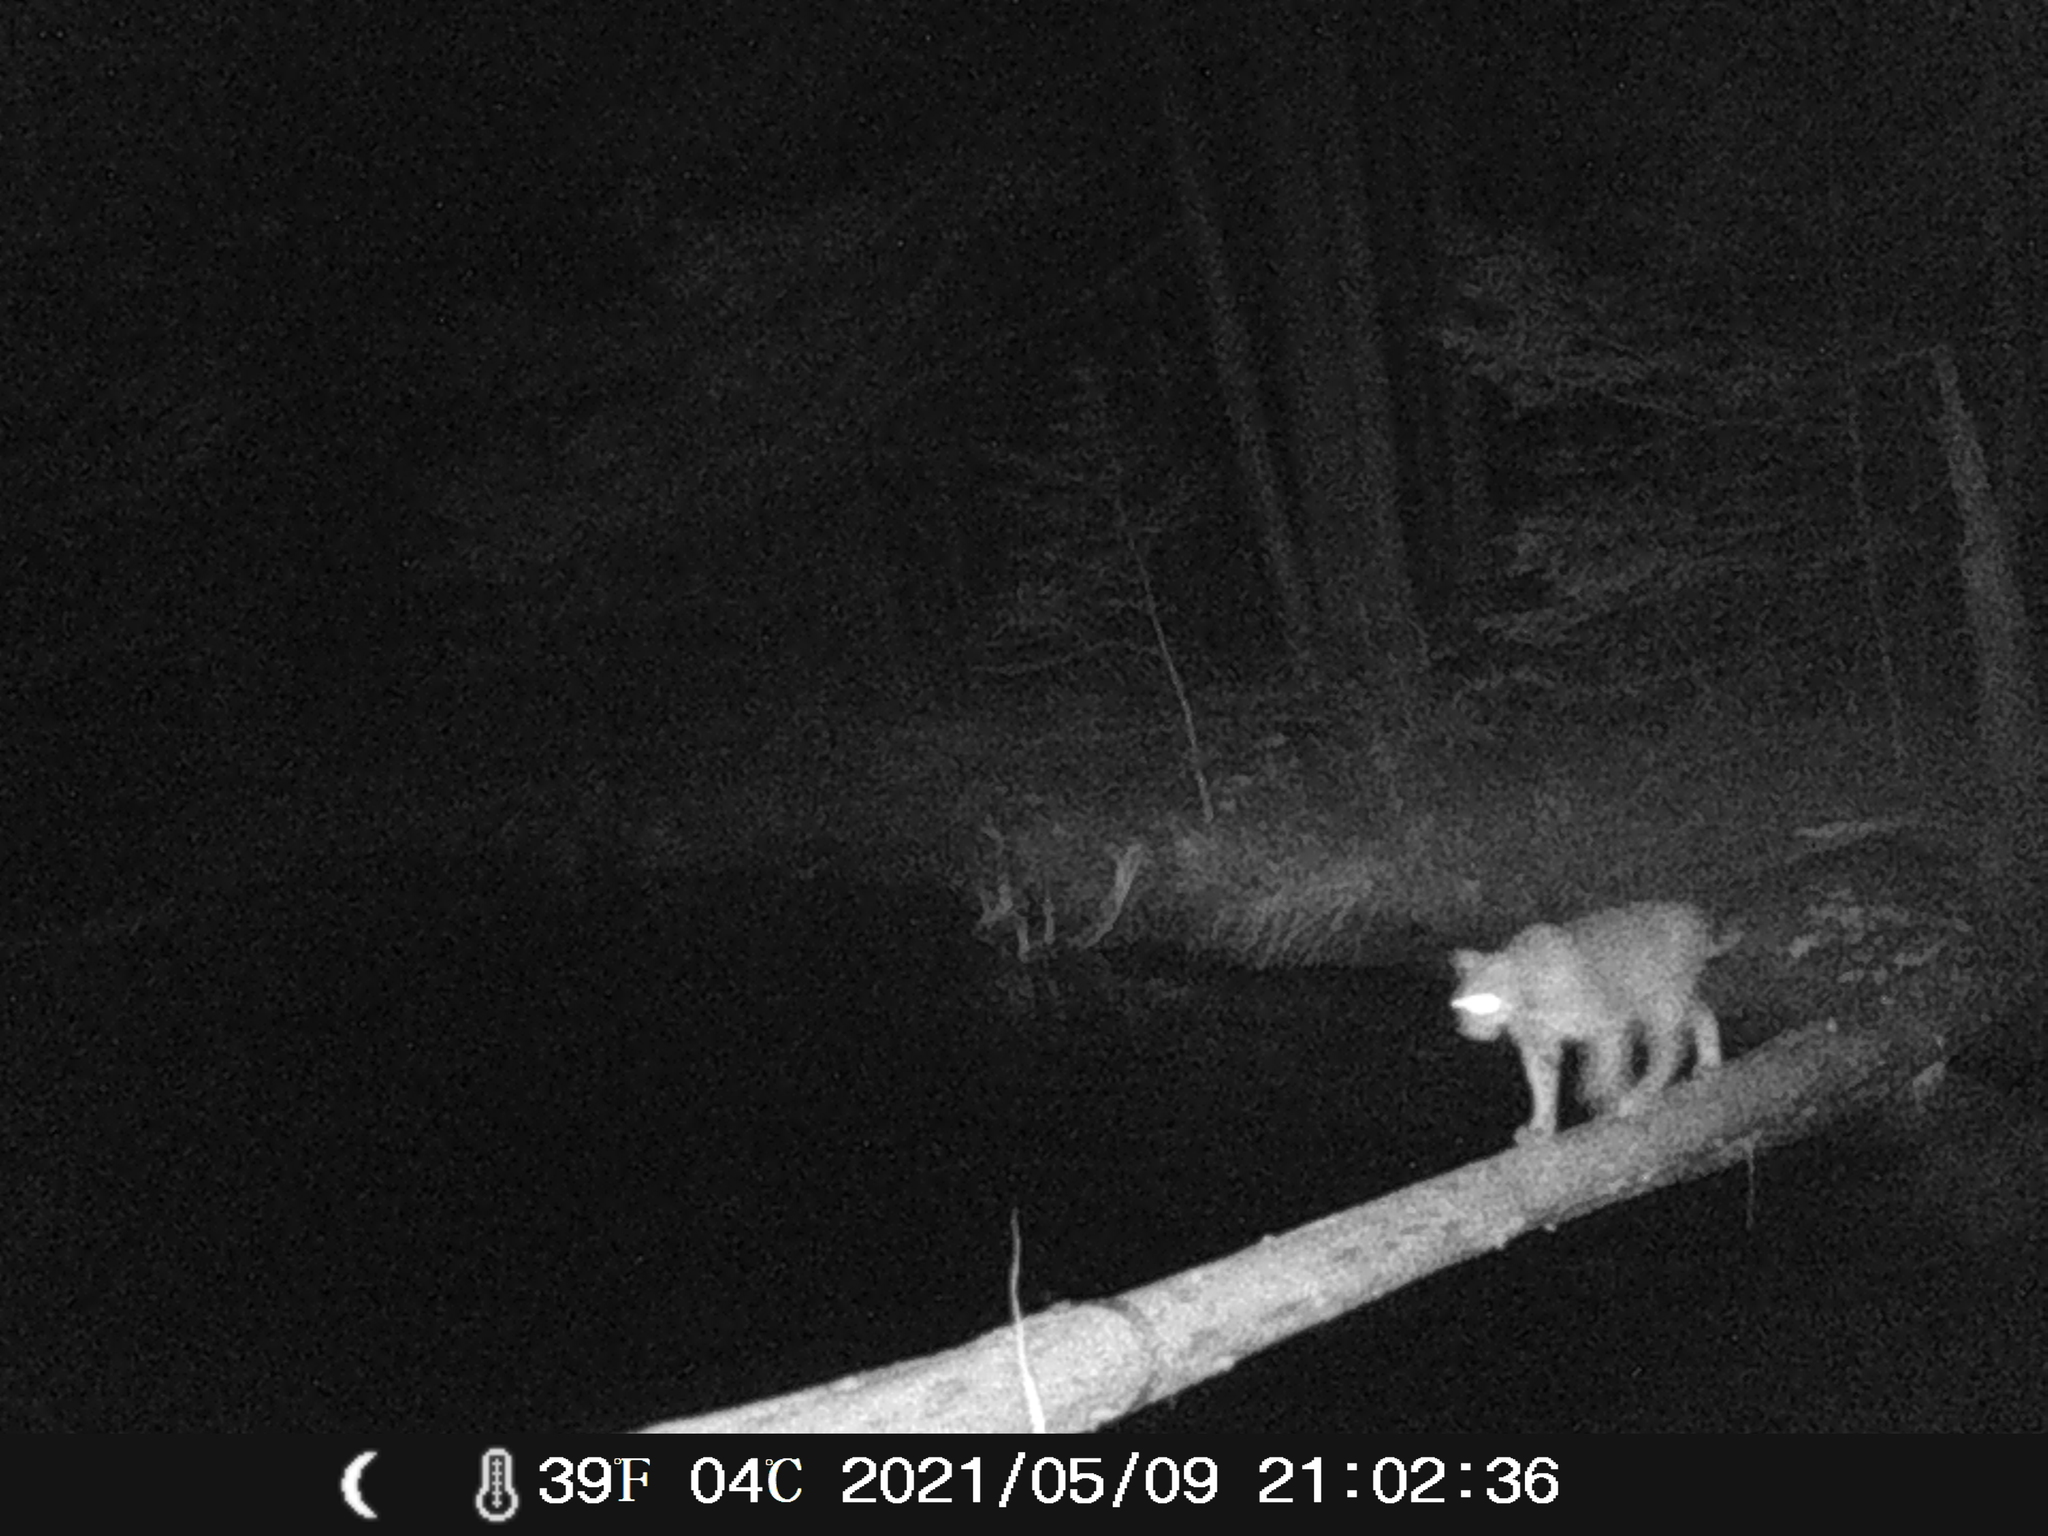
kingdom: Animalia
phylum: Chordata
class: Mammalia
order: Carnivora
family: Felidae
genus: Lynx
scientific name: Lynx rufus
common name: Bobcat
